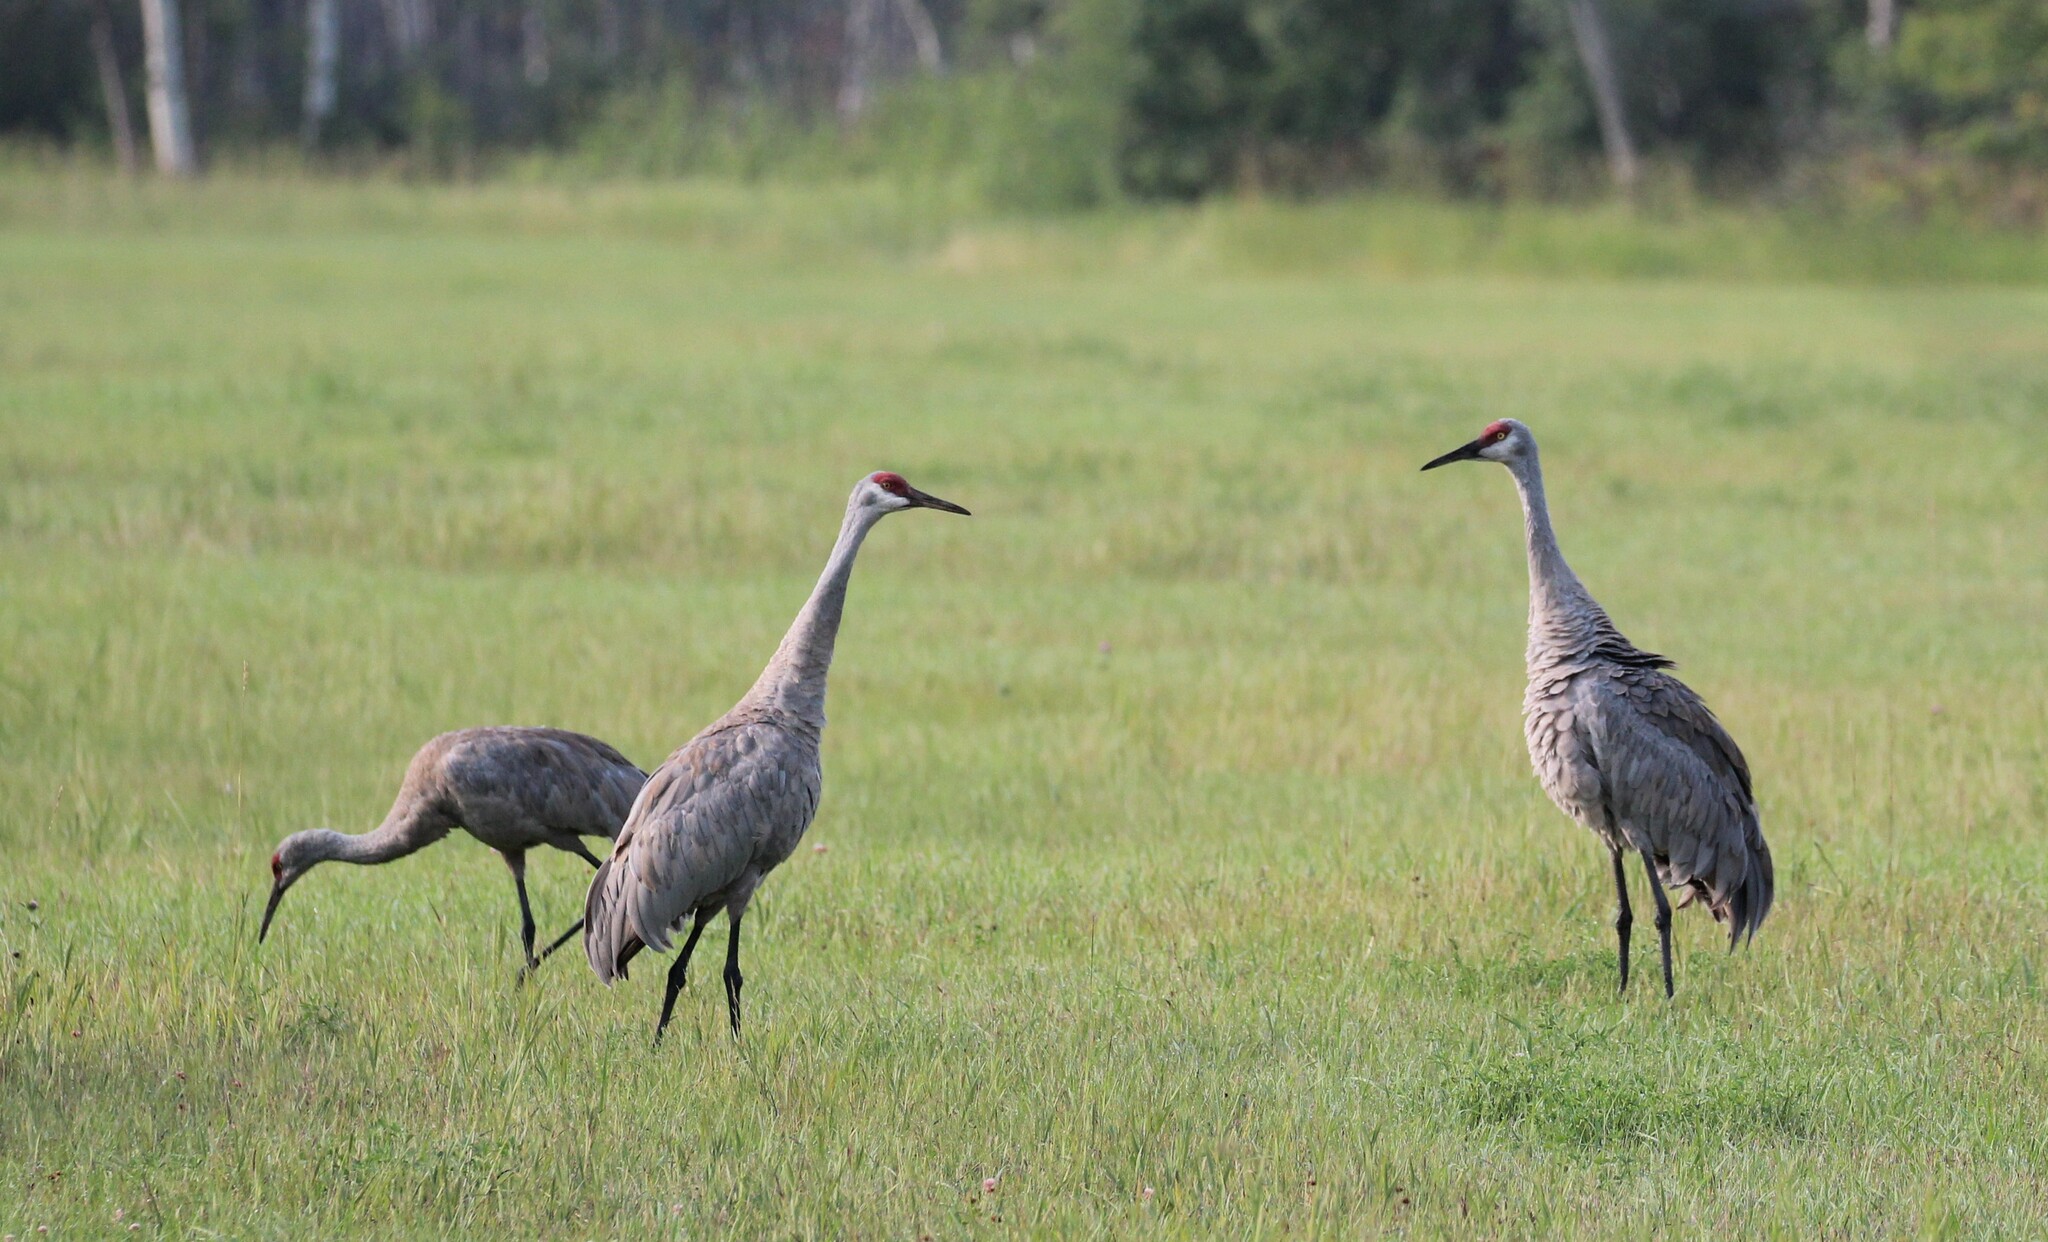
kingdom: Animalia
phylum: Chordata
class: Aves
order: Gruiformes
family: Gruidae
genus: Grus
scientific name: Grus canadensis
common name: Sandhill crane
